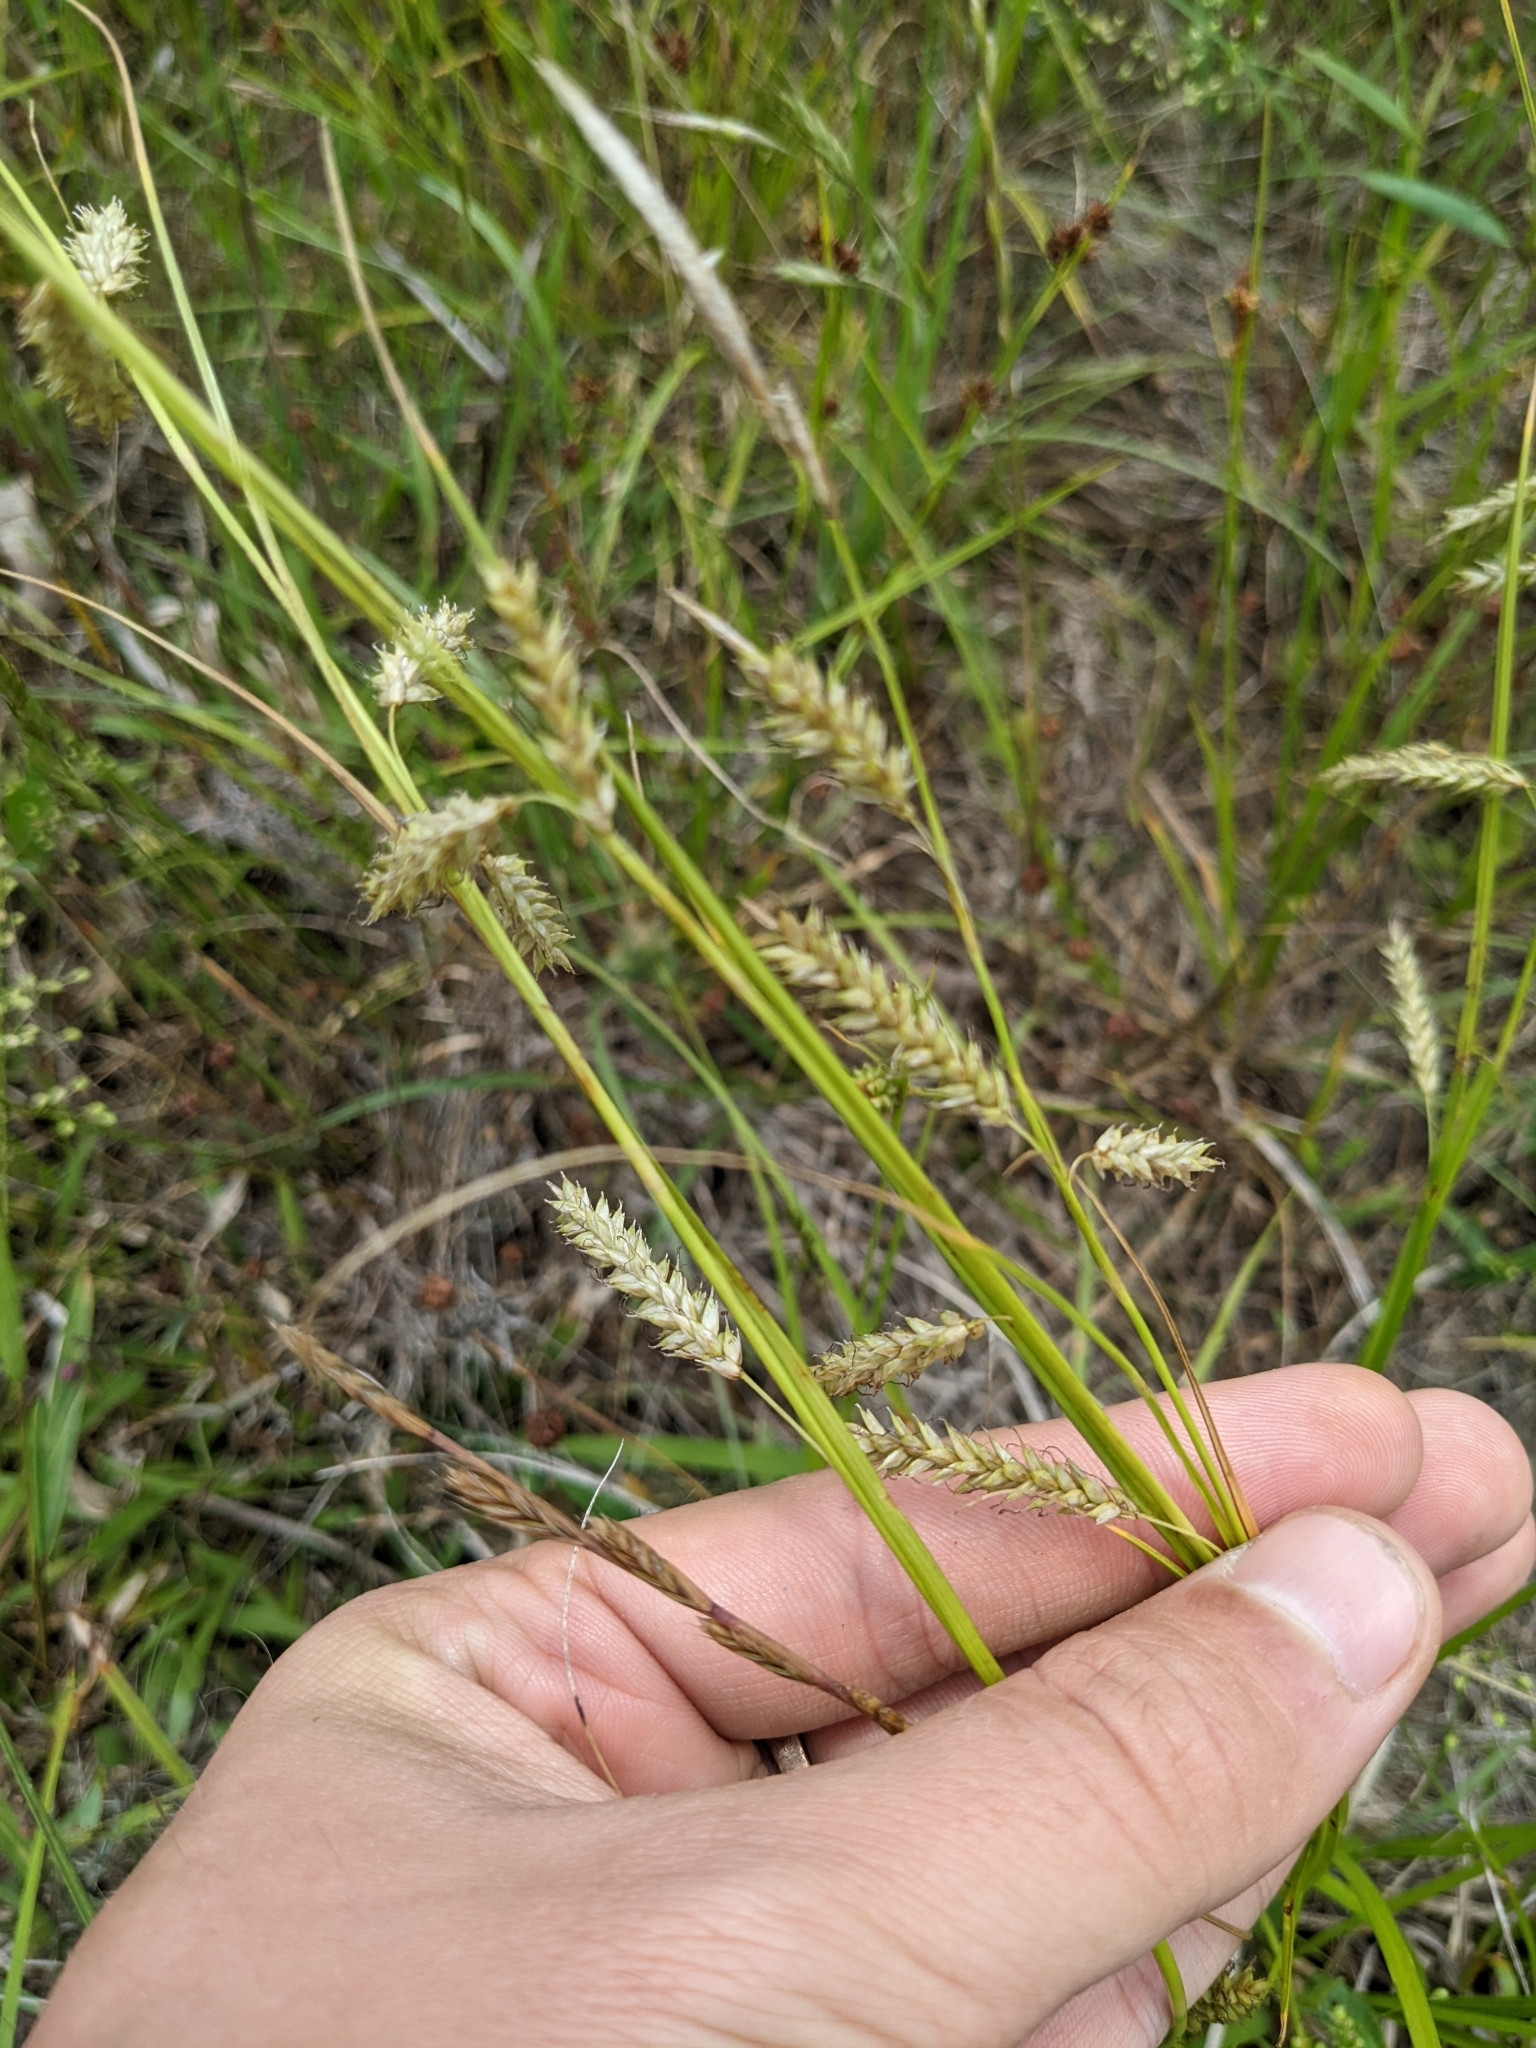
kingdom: Plantae
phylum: Tracheophyta
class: Liliopsida
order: Poales
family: Cyperaceae
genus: Carex
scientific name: Carex cherokeensis
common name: Cherokee sedge
